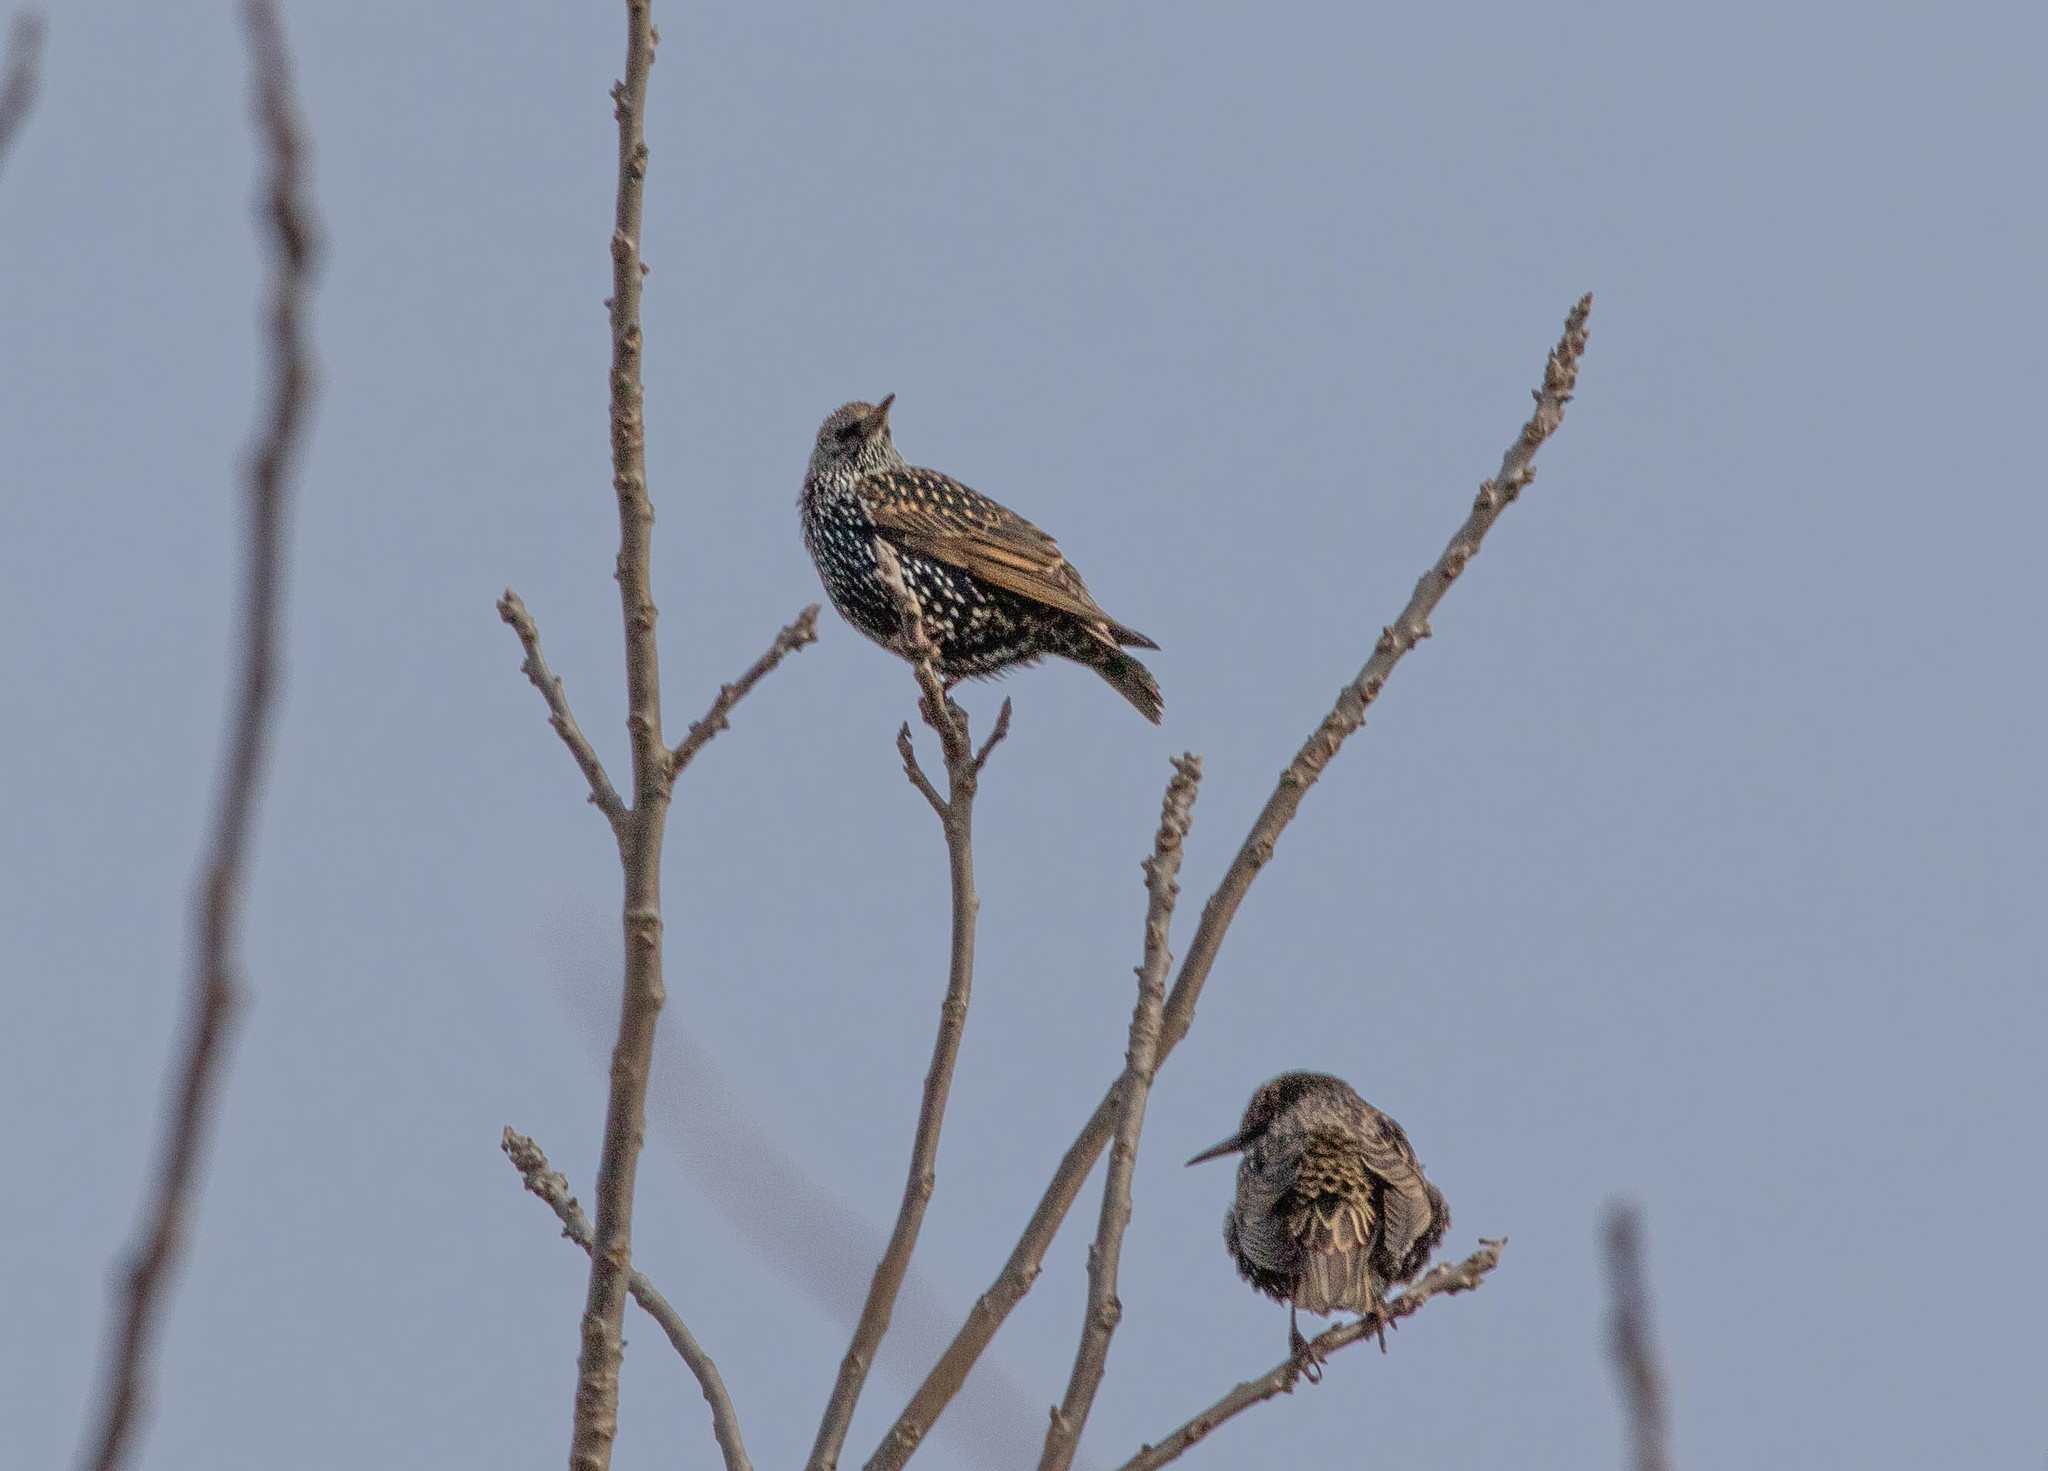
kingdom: Animalia
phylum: Chordata
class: Aves
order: Passeriformes
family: Sturnidae
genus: Sturnus
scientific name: Sturnus vulgaris
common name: Common starling
